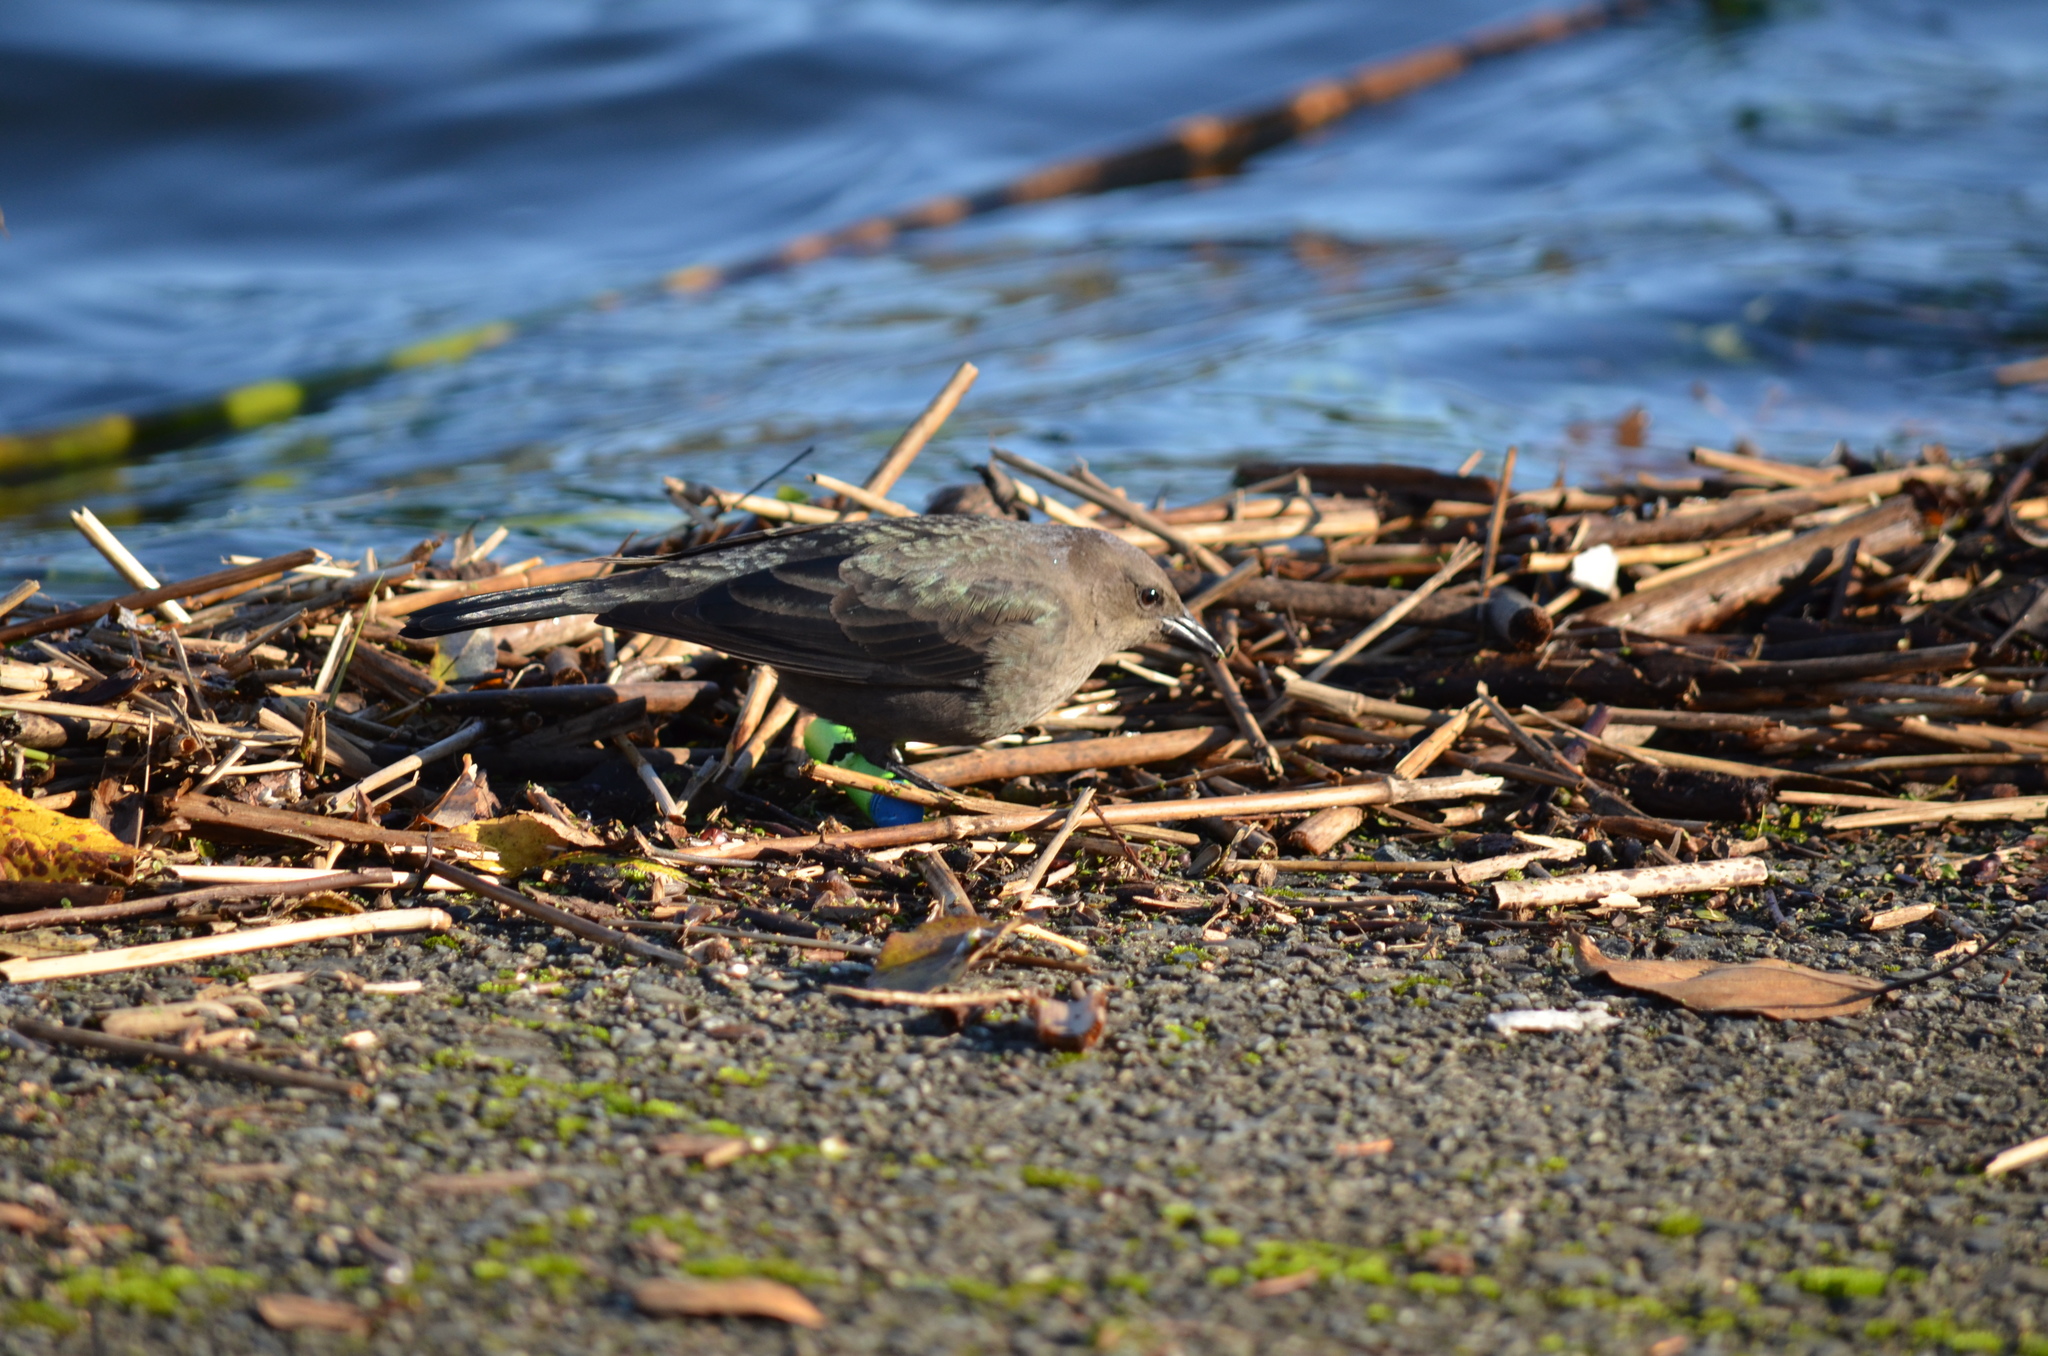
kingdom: Animalia
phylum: Chordata
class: Aves
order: Passeriformes
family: Icteridae
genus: Euphagus
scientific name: Euphagus cyanocephalus
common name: Brewer's blackbird
